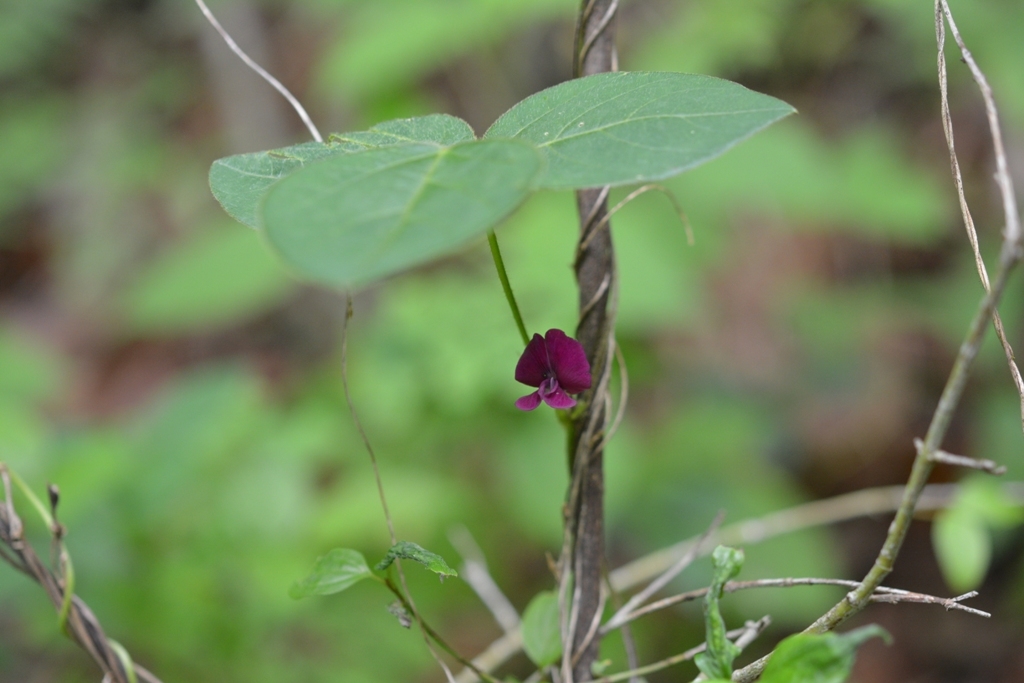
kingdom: Plantae
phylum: Tracheophyta
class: Magnoliopsida
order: Fabales
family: Fabaceae
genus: Cologania
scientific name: Cologania broussonetii
